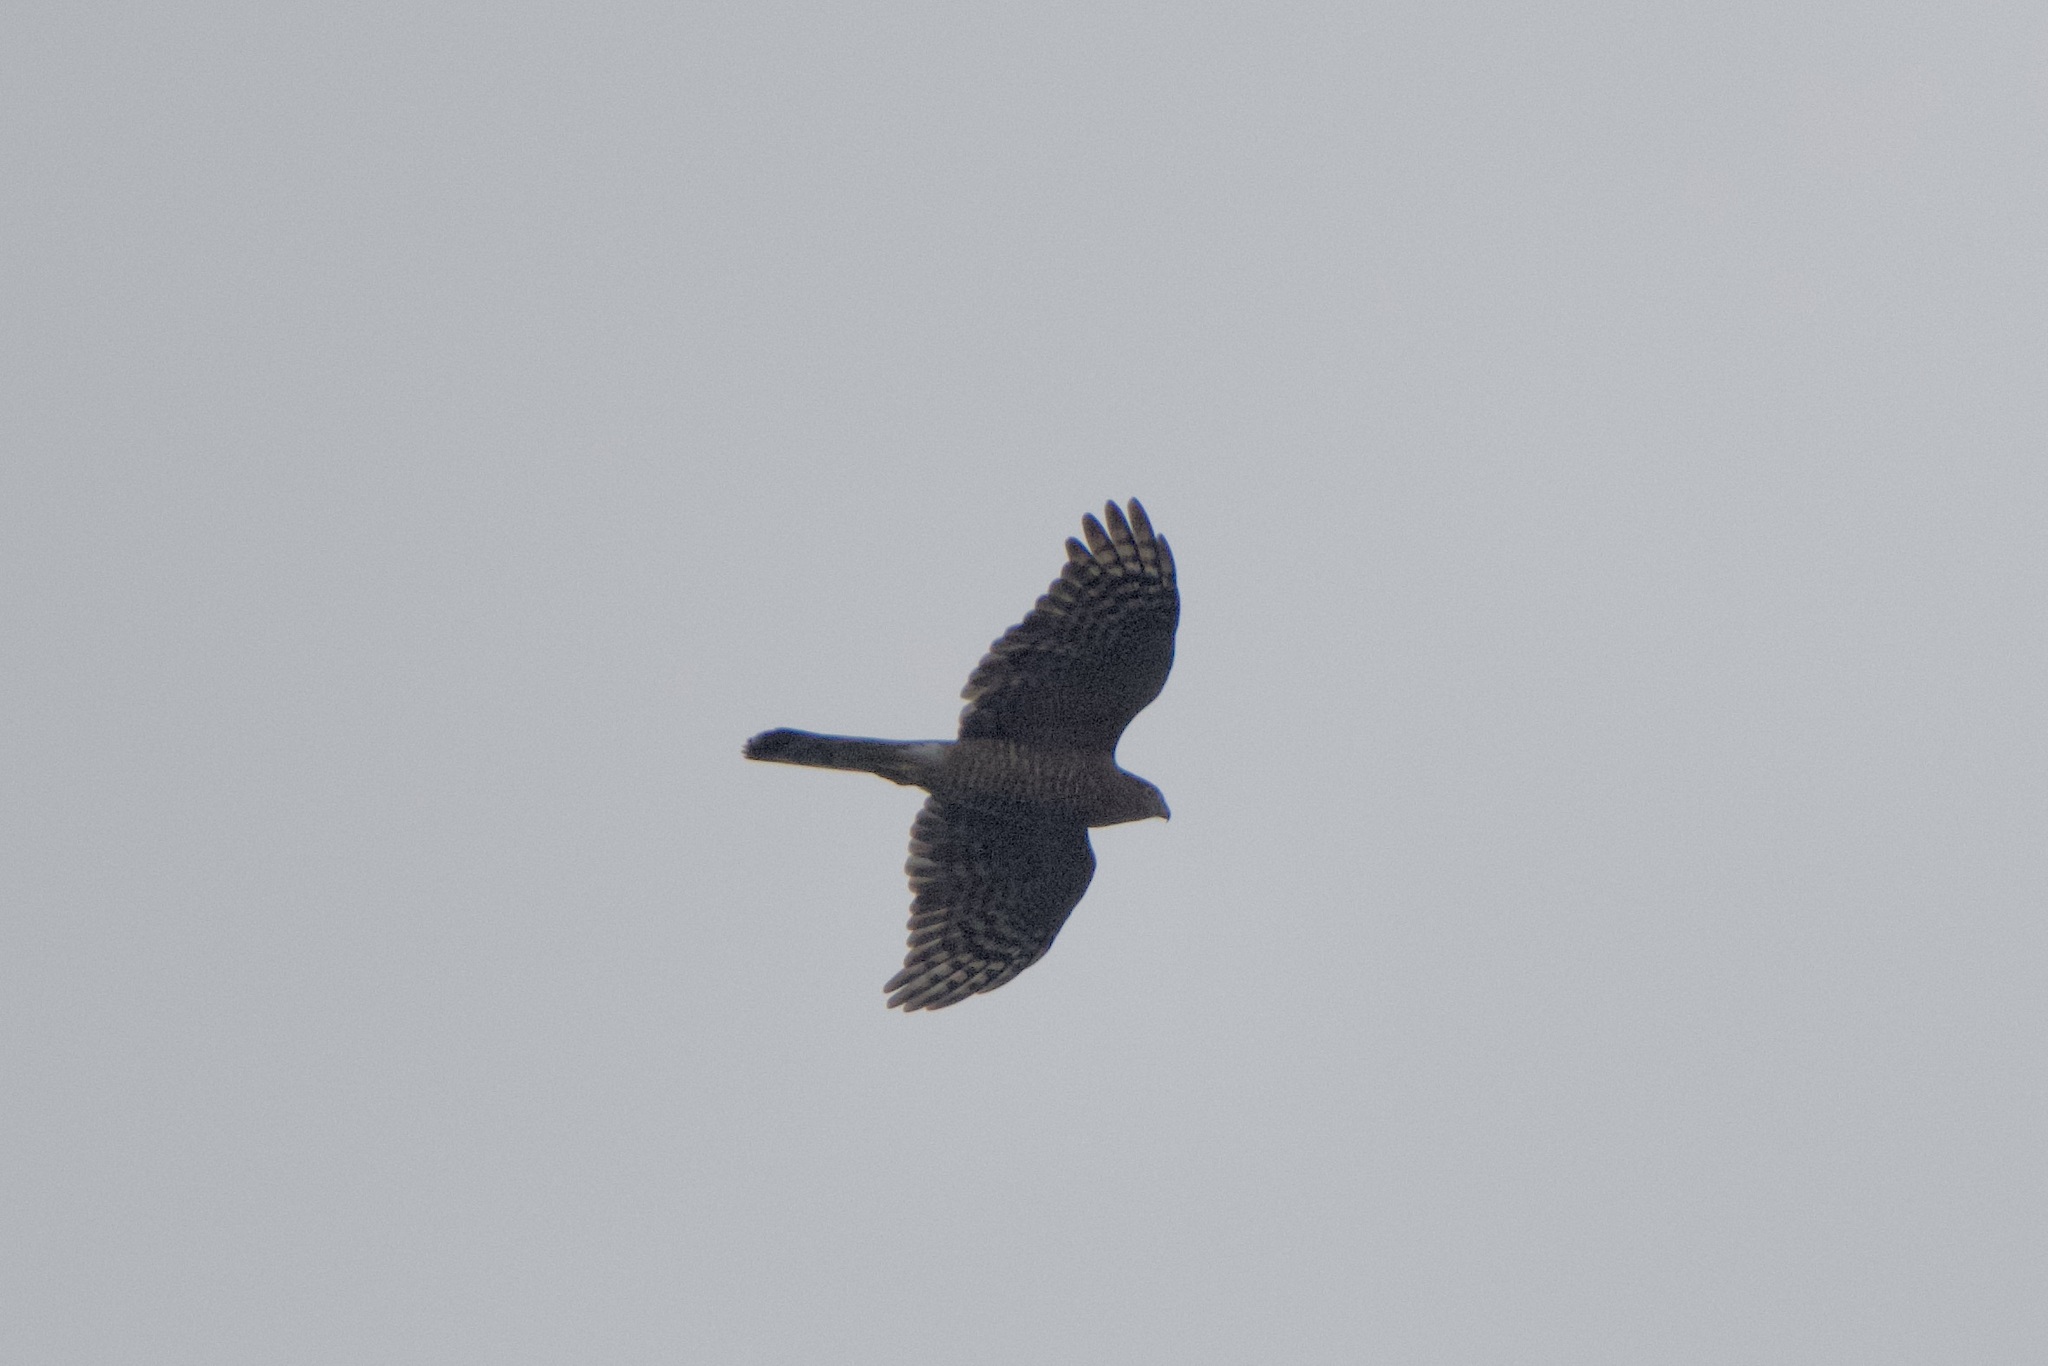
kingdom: Animalia
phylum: Chordata
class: Aves
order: Accipitriformes
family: Accipitridae
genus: Accipiter
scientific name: Accipiter cooperii
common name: Cooper's hawk
